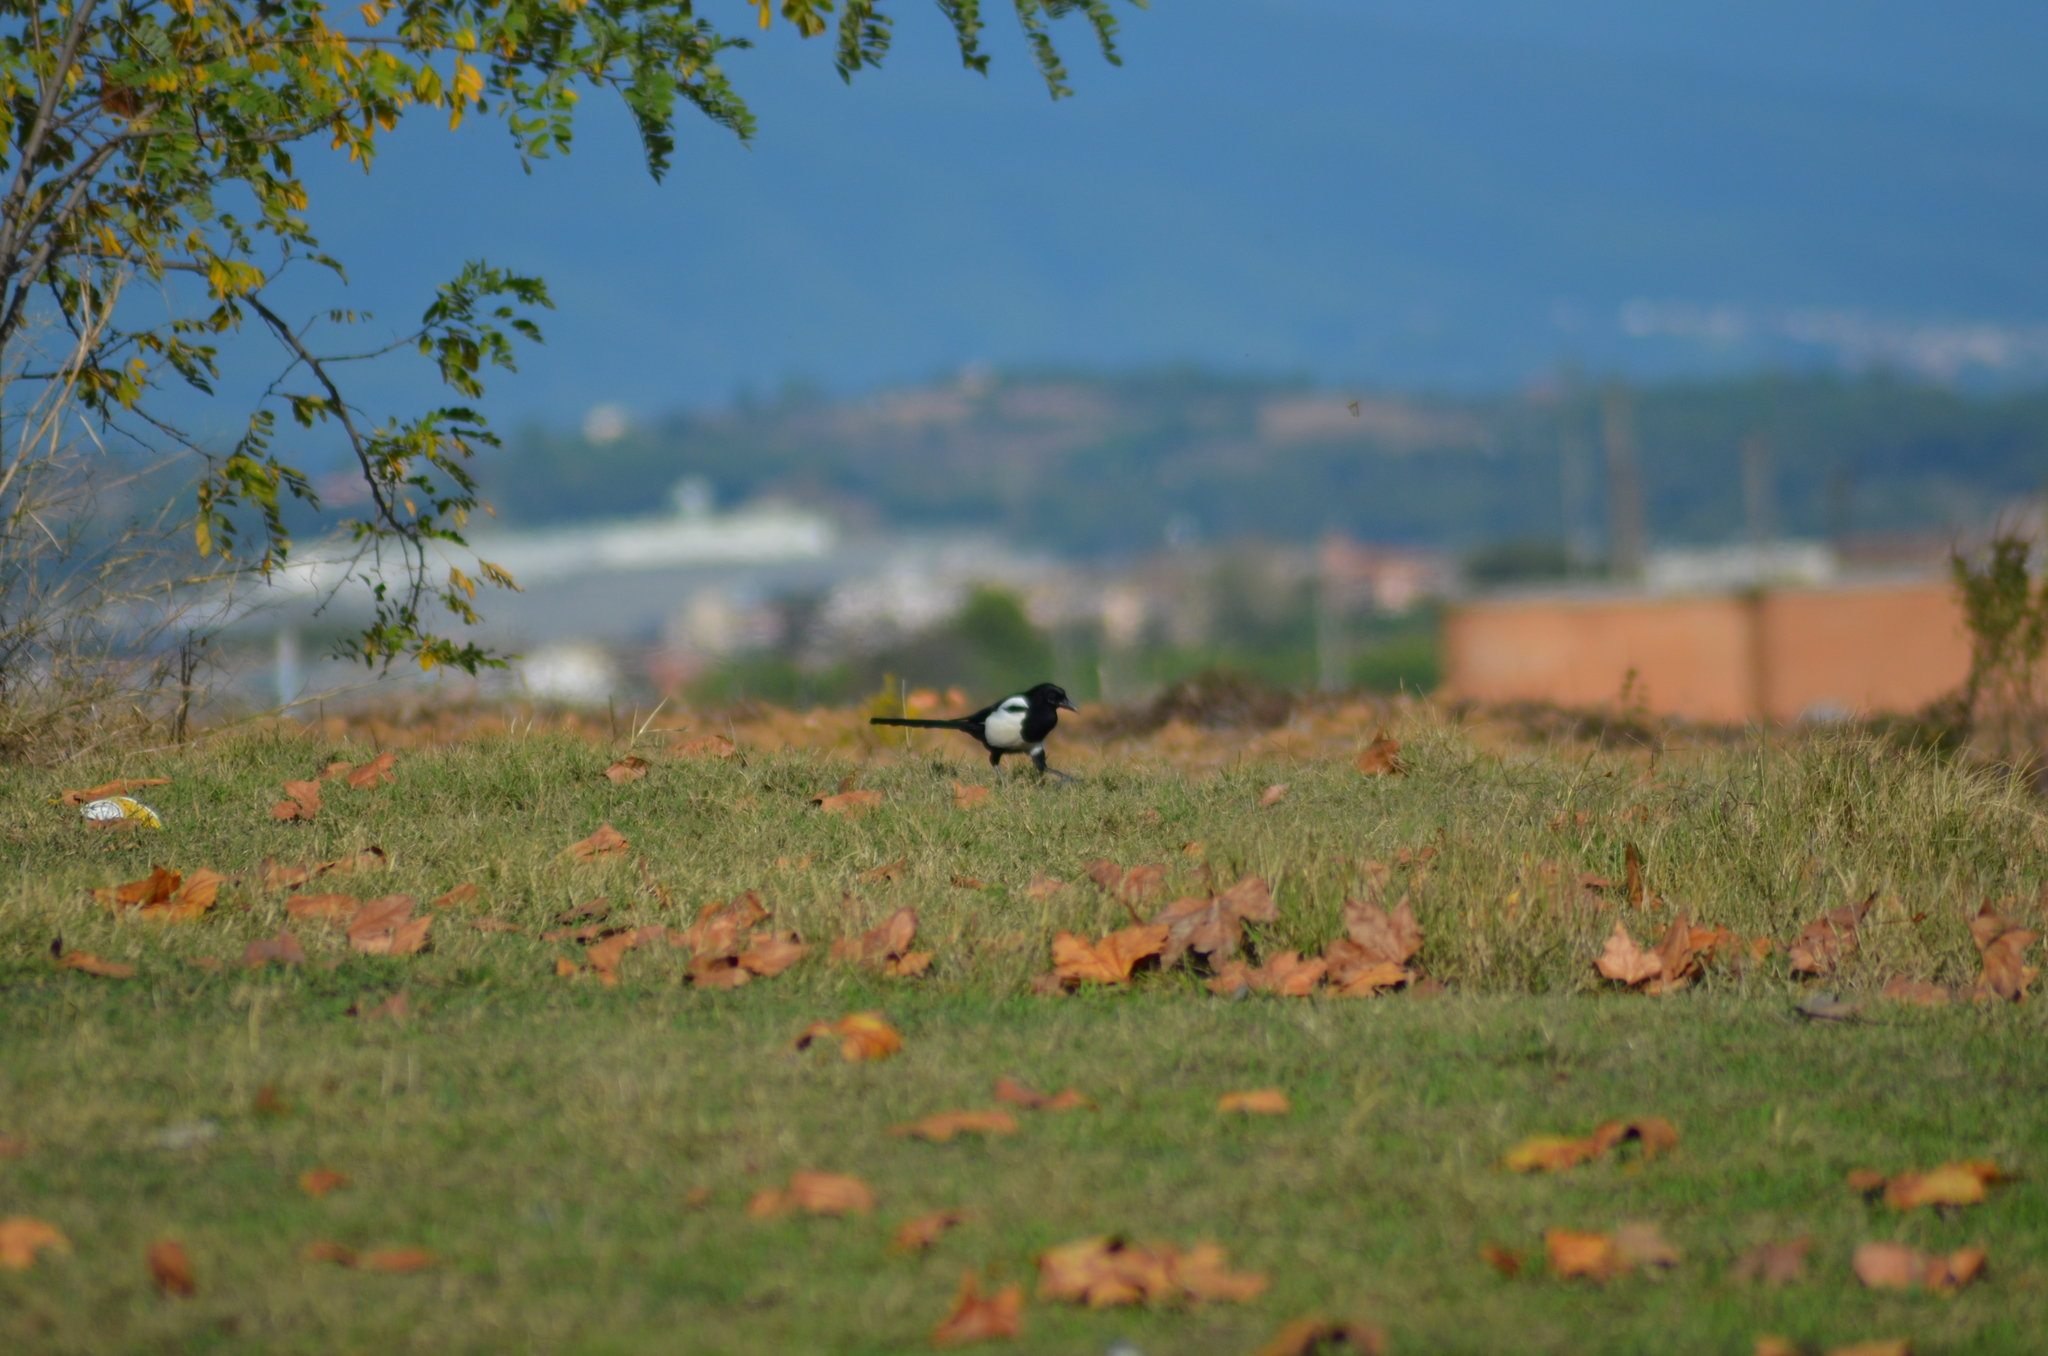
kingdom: Animalia
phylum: Chordata
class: Aves
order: Passeriformes
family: Corvidae
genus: Pica
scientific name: Pica pica
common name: Eurasian magpie
